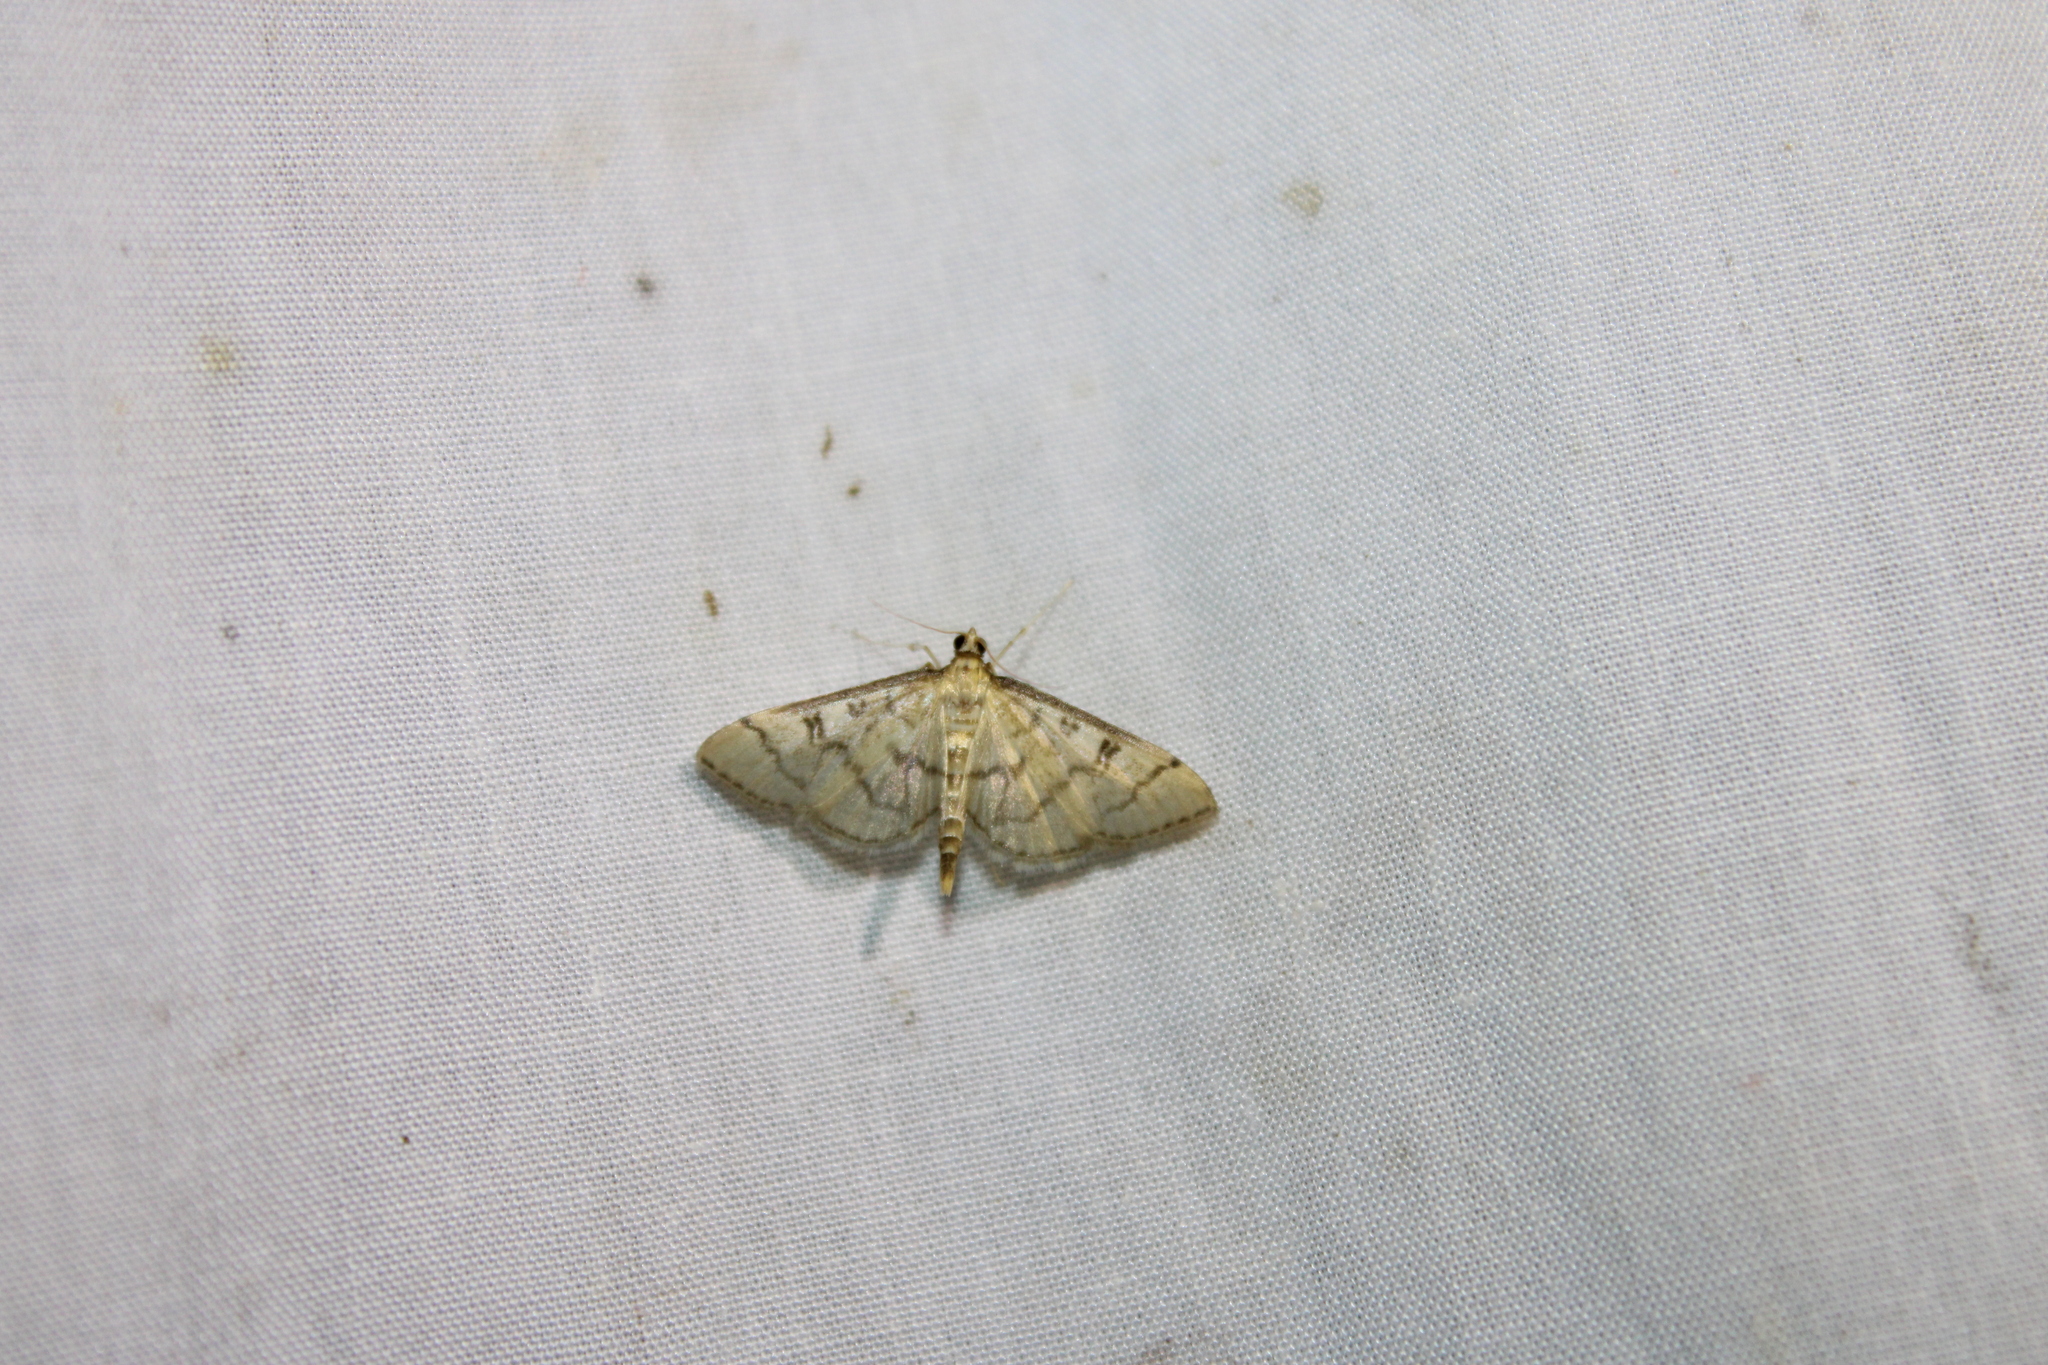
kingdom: Animalia
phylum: Arthropoda
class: Insecta
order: Lepidoptera
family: Crambidae
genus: Lamprosema
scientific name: Lamprosema Blepharomastix ranalis
